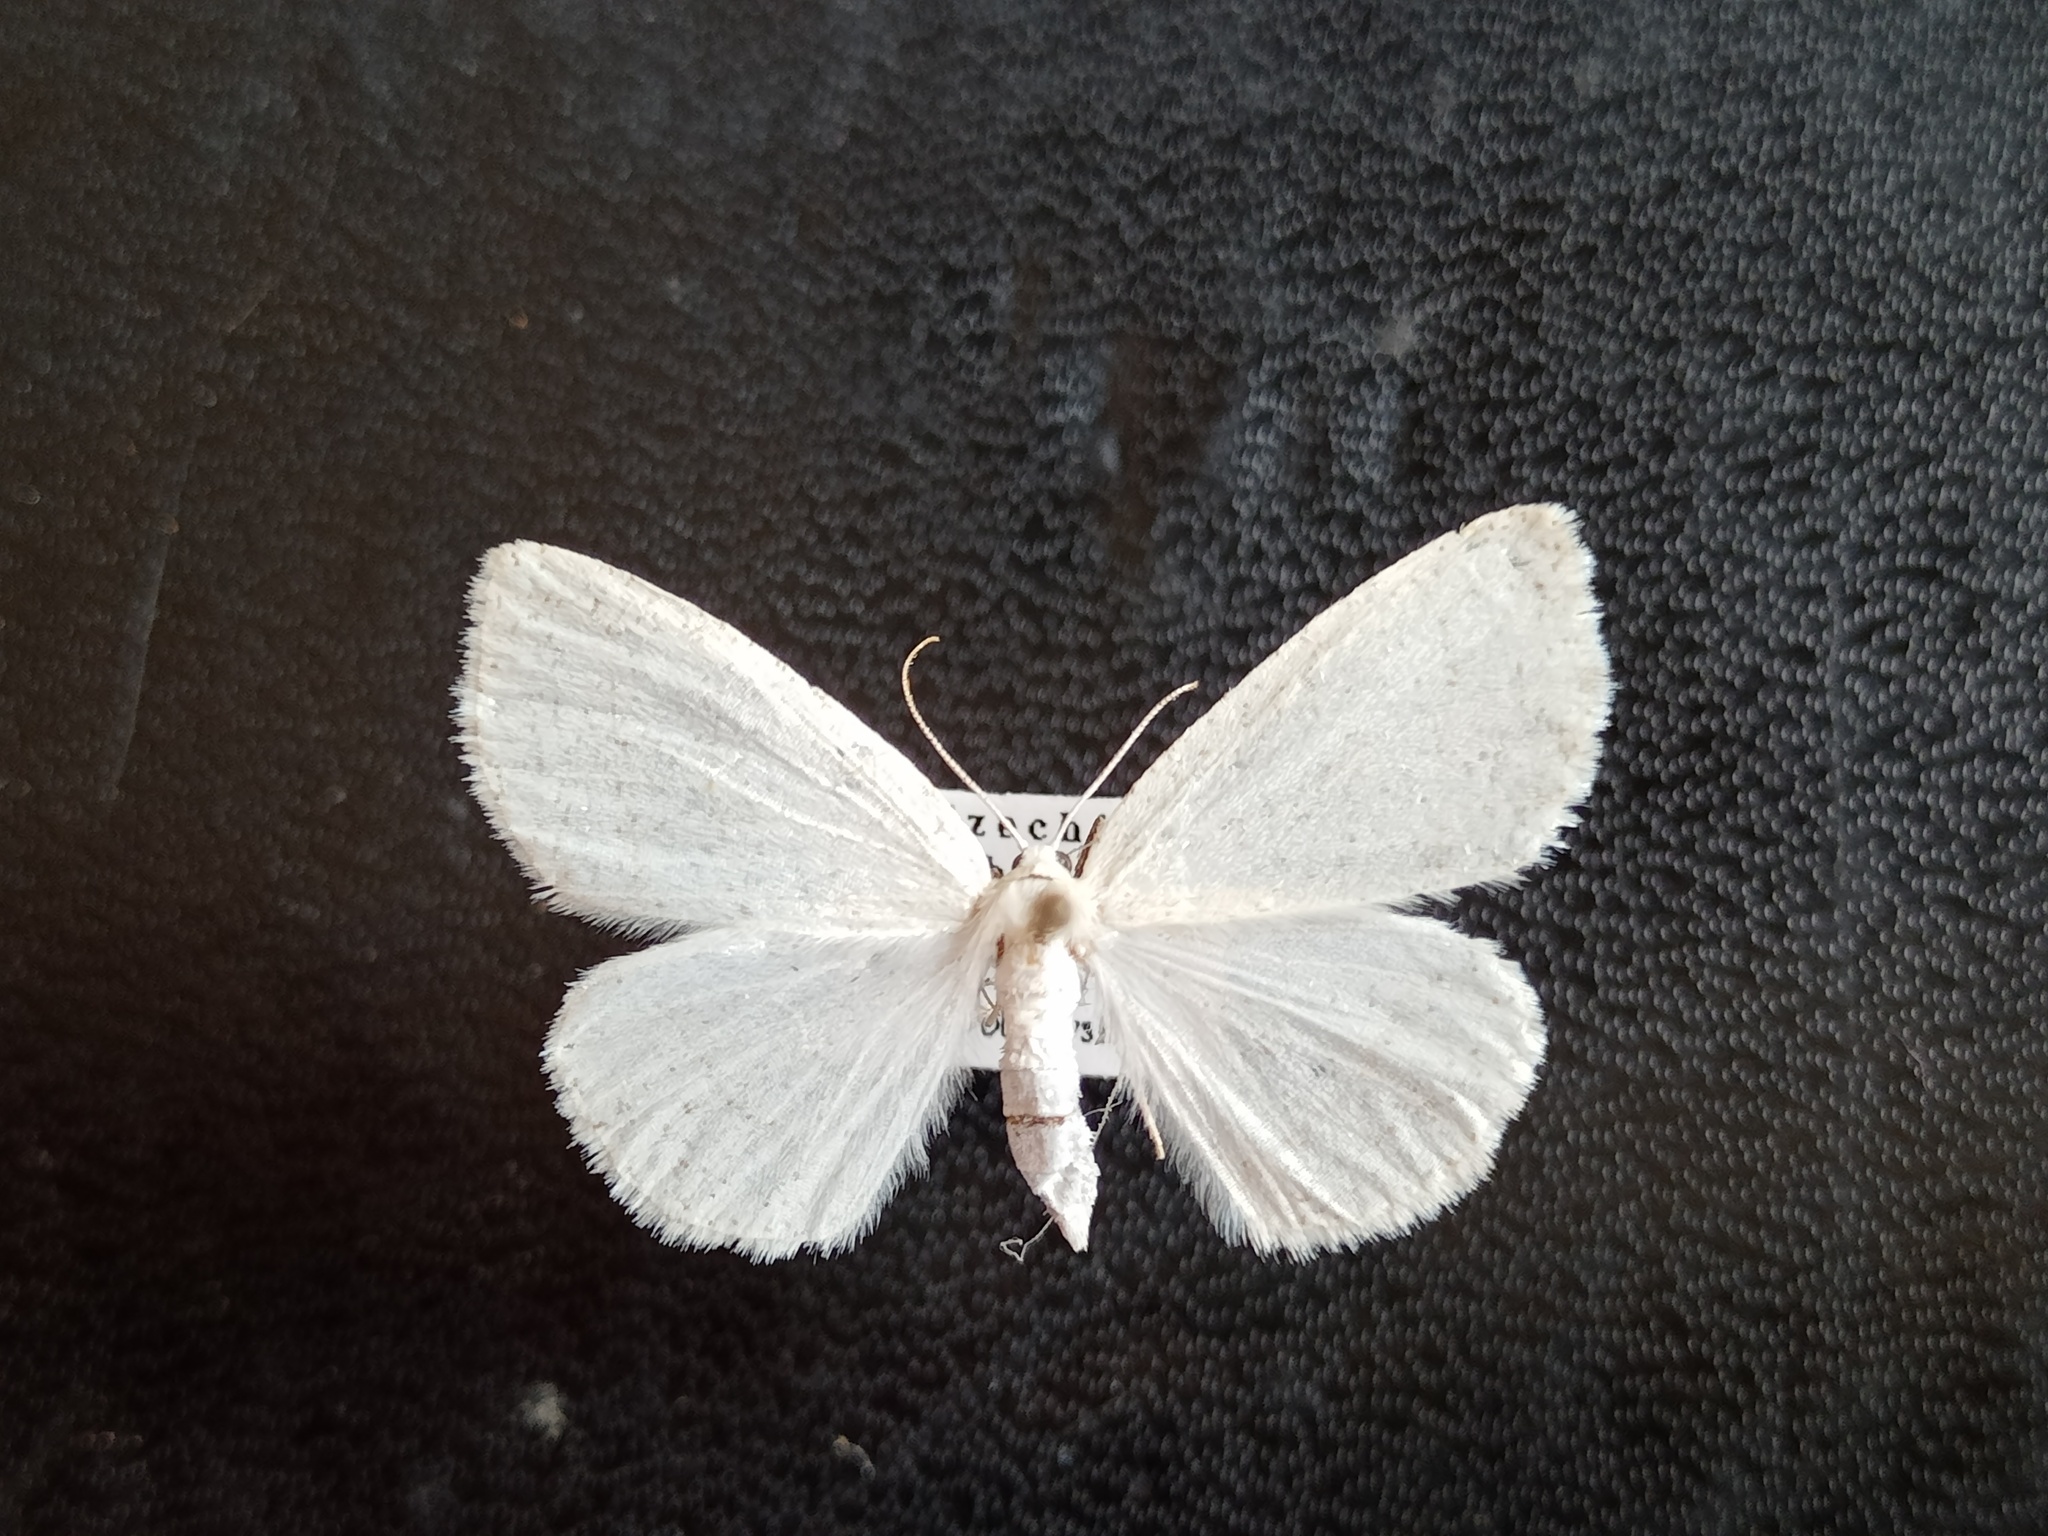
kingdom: Animalia
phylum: Arthropoda
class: Insecta
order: Lepidoptera
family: Geometridae
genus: Cabera
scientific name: Cabera pusaria
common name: Common white wave
